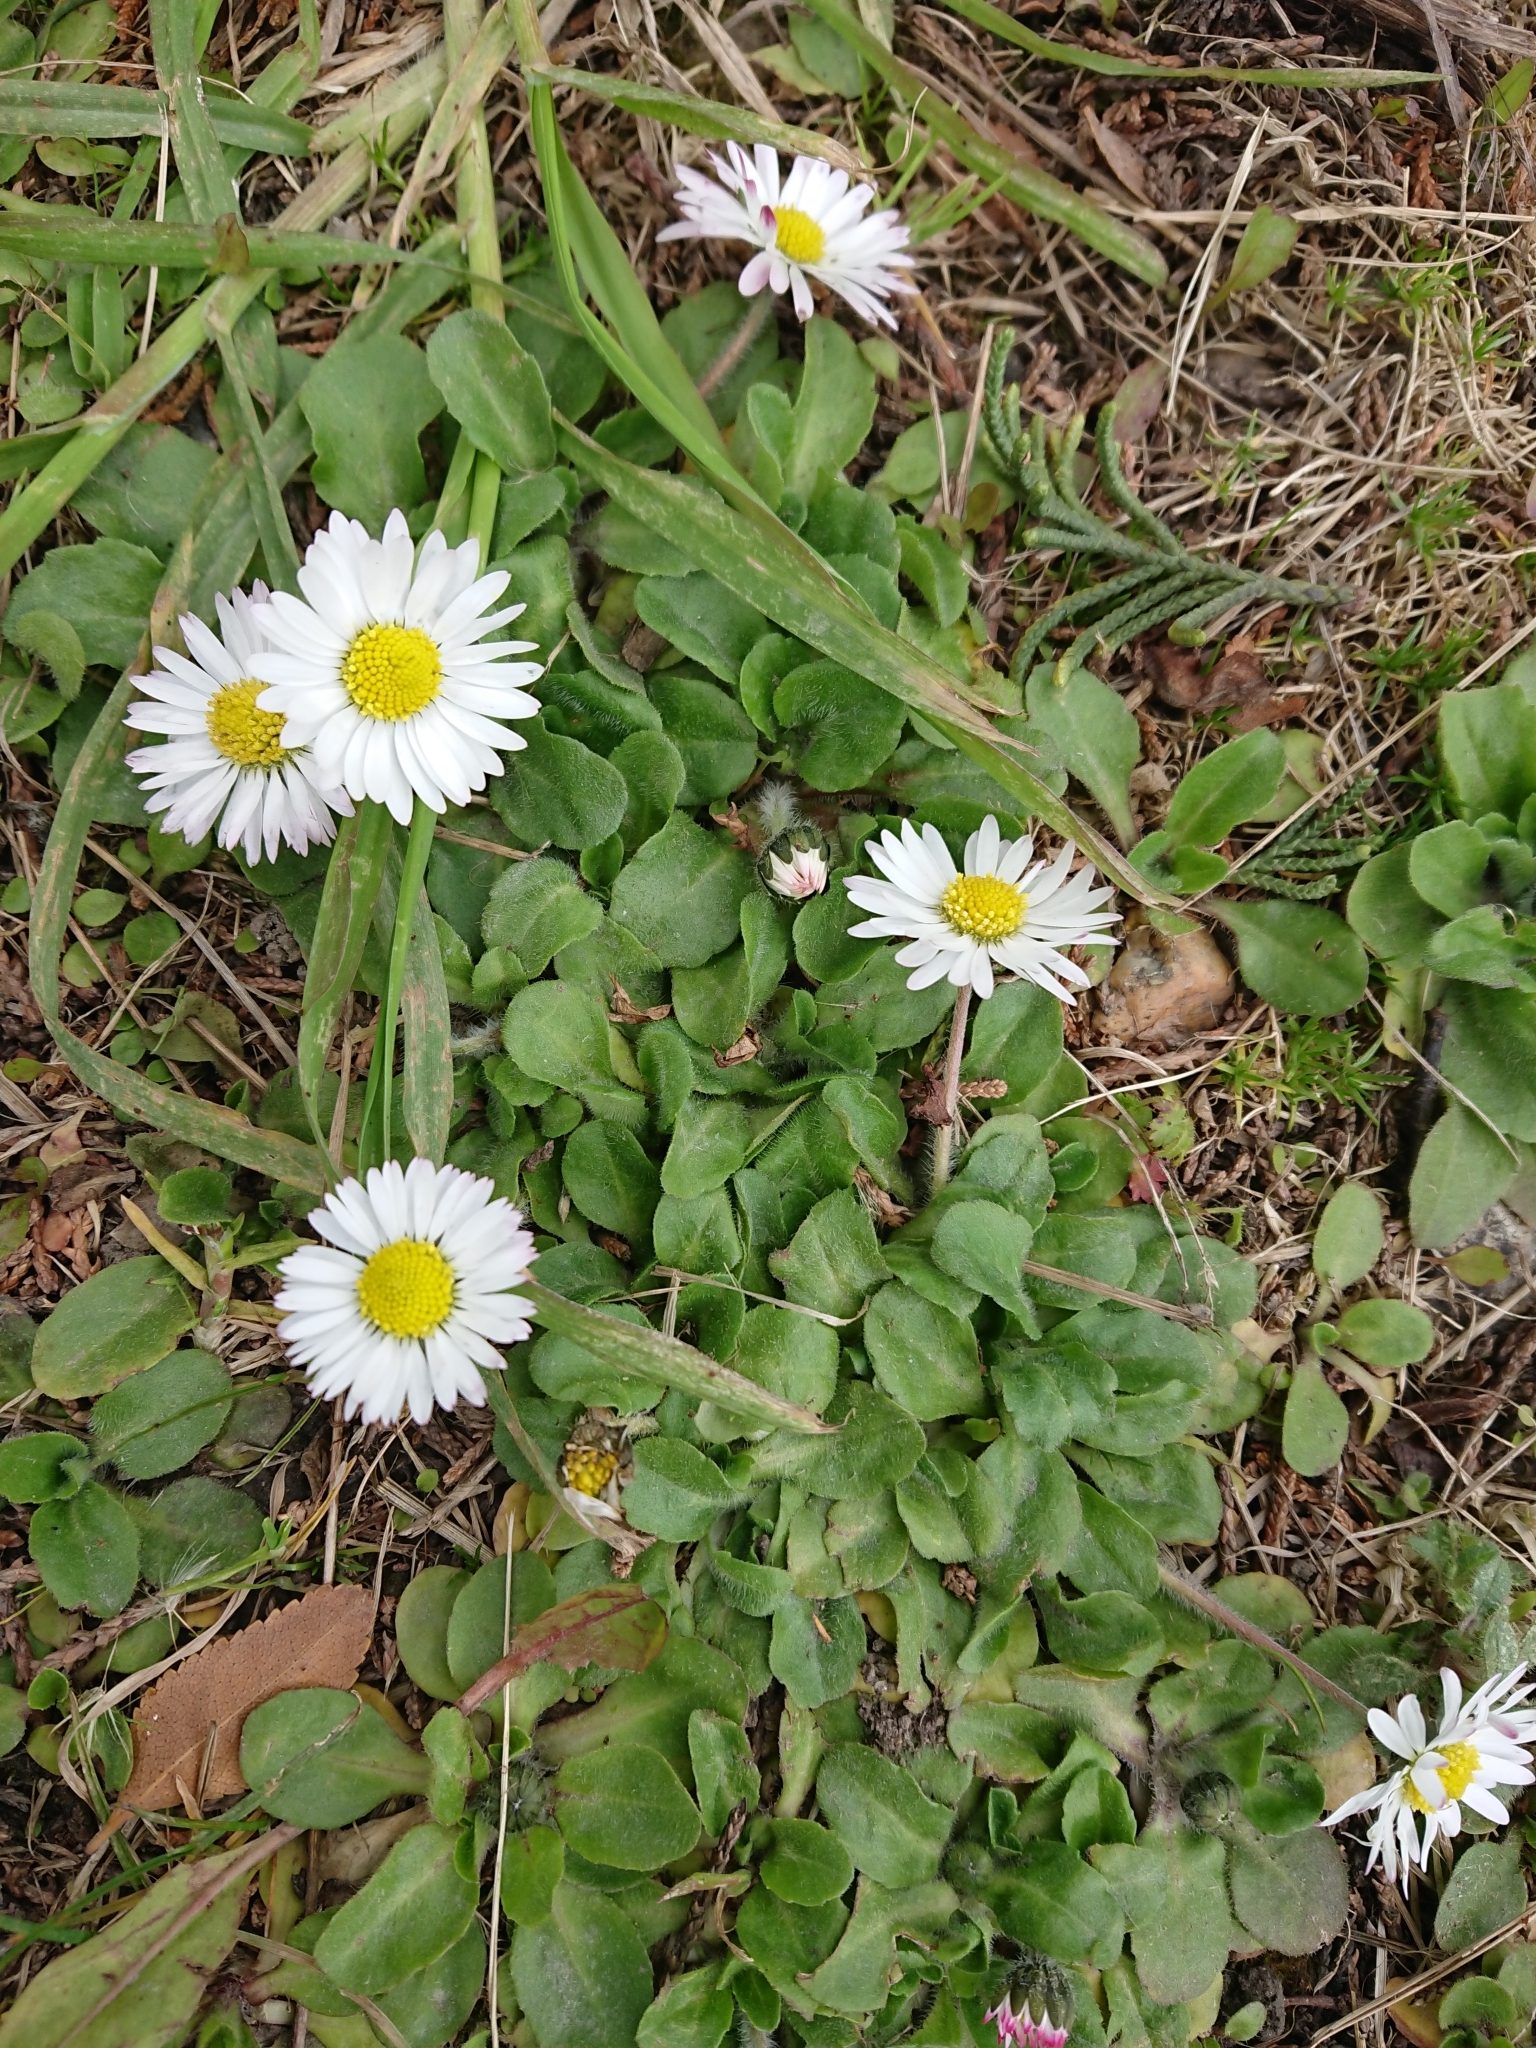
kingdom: Plantae
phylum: Tracheophyta
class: Magnoliopsida
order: Asterales
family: Asteraceae
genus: Bellis
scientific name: Bellis perennis
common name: Lawndaisy
